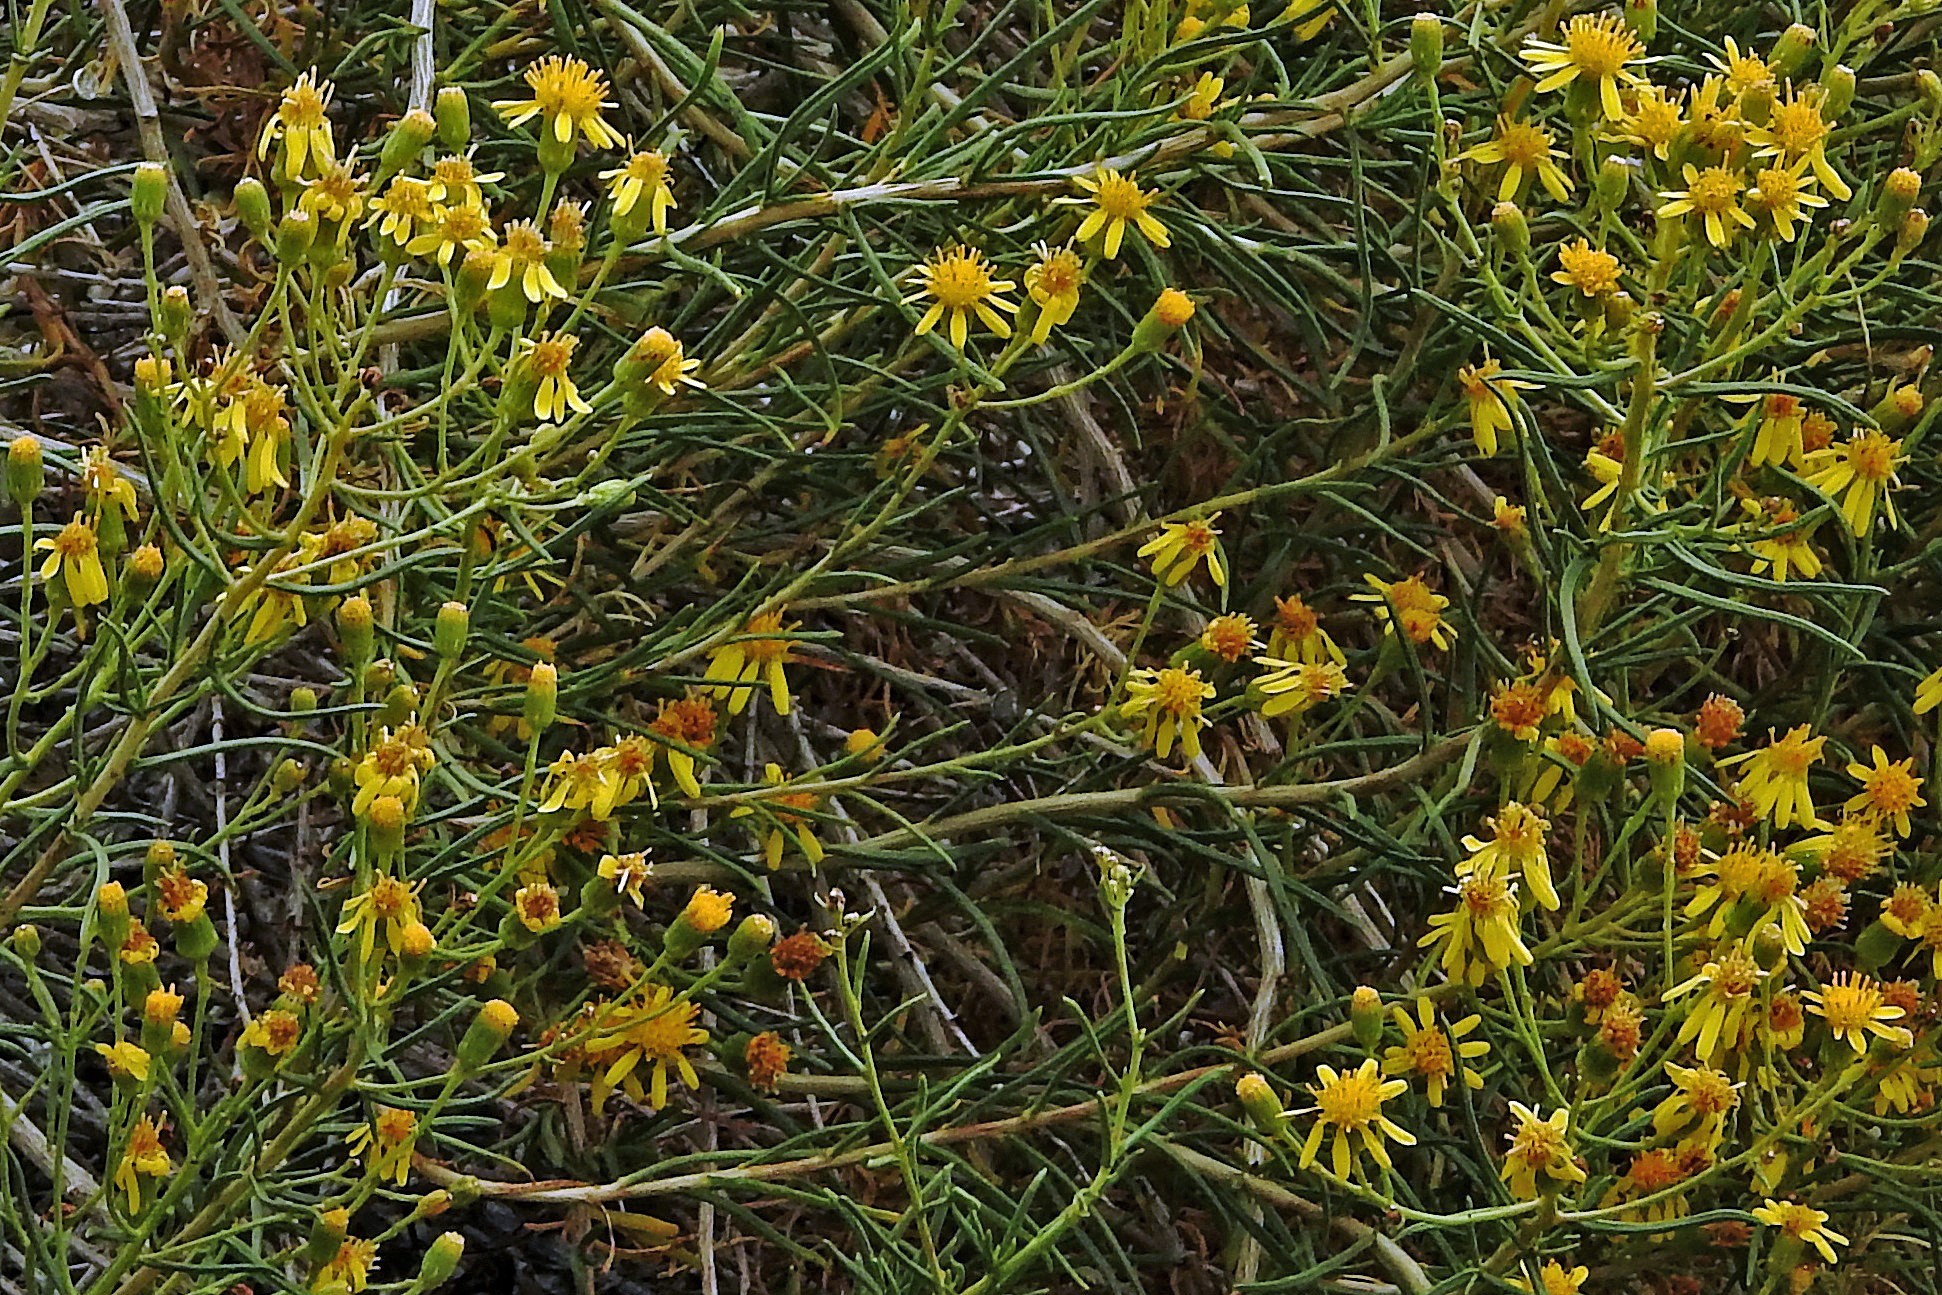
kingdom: Plantae
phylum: Tracheophyta
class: Magnoliopsida
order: Asterales
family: Asteraceae
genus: Senecio
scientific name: Senecio subulatus
